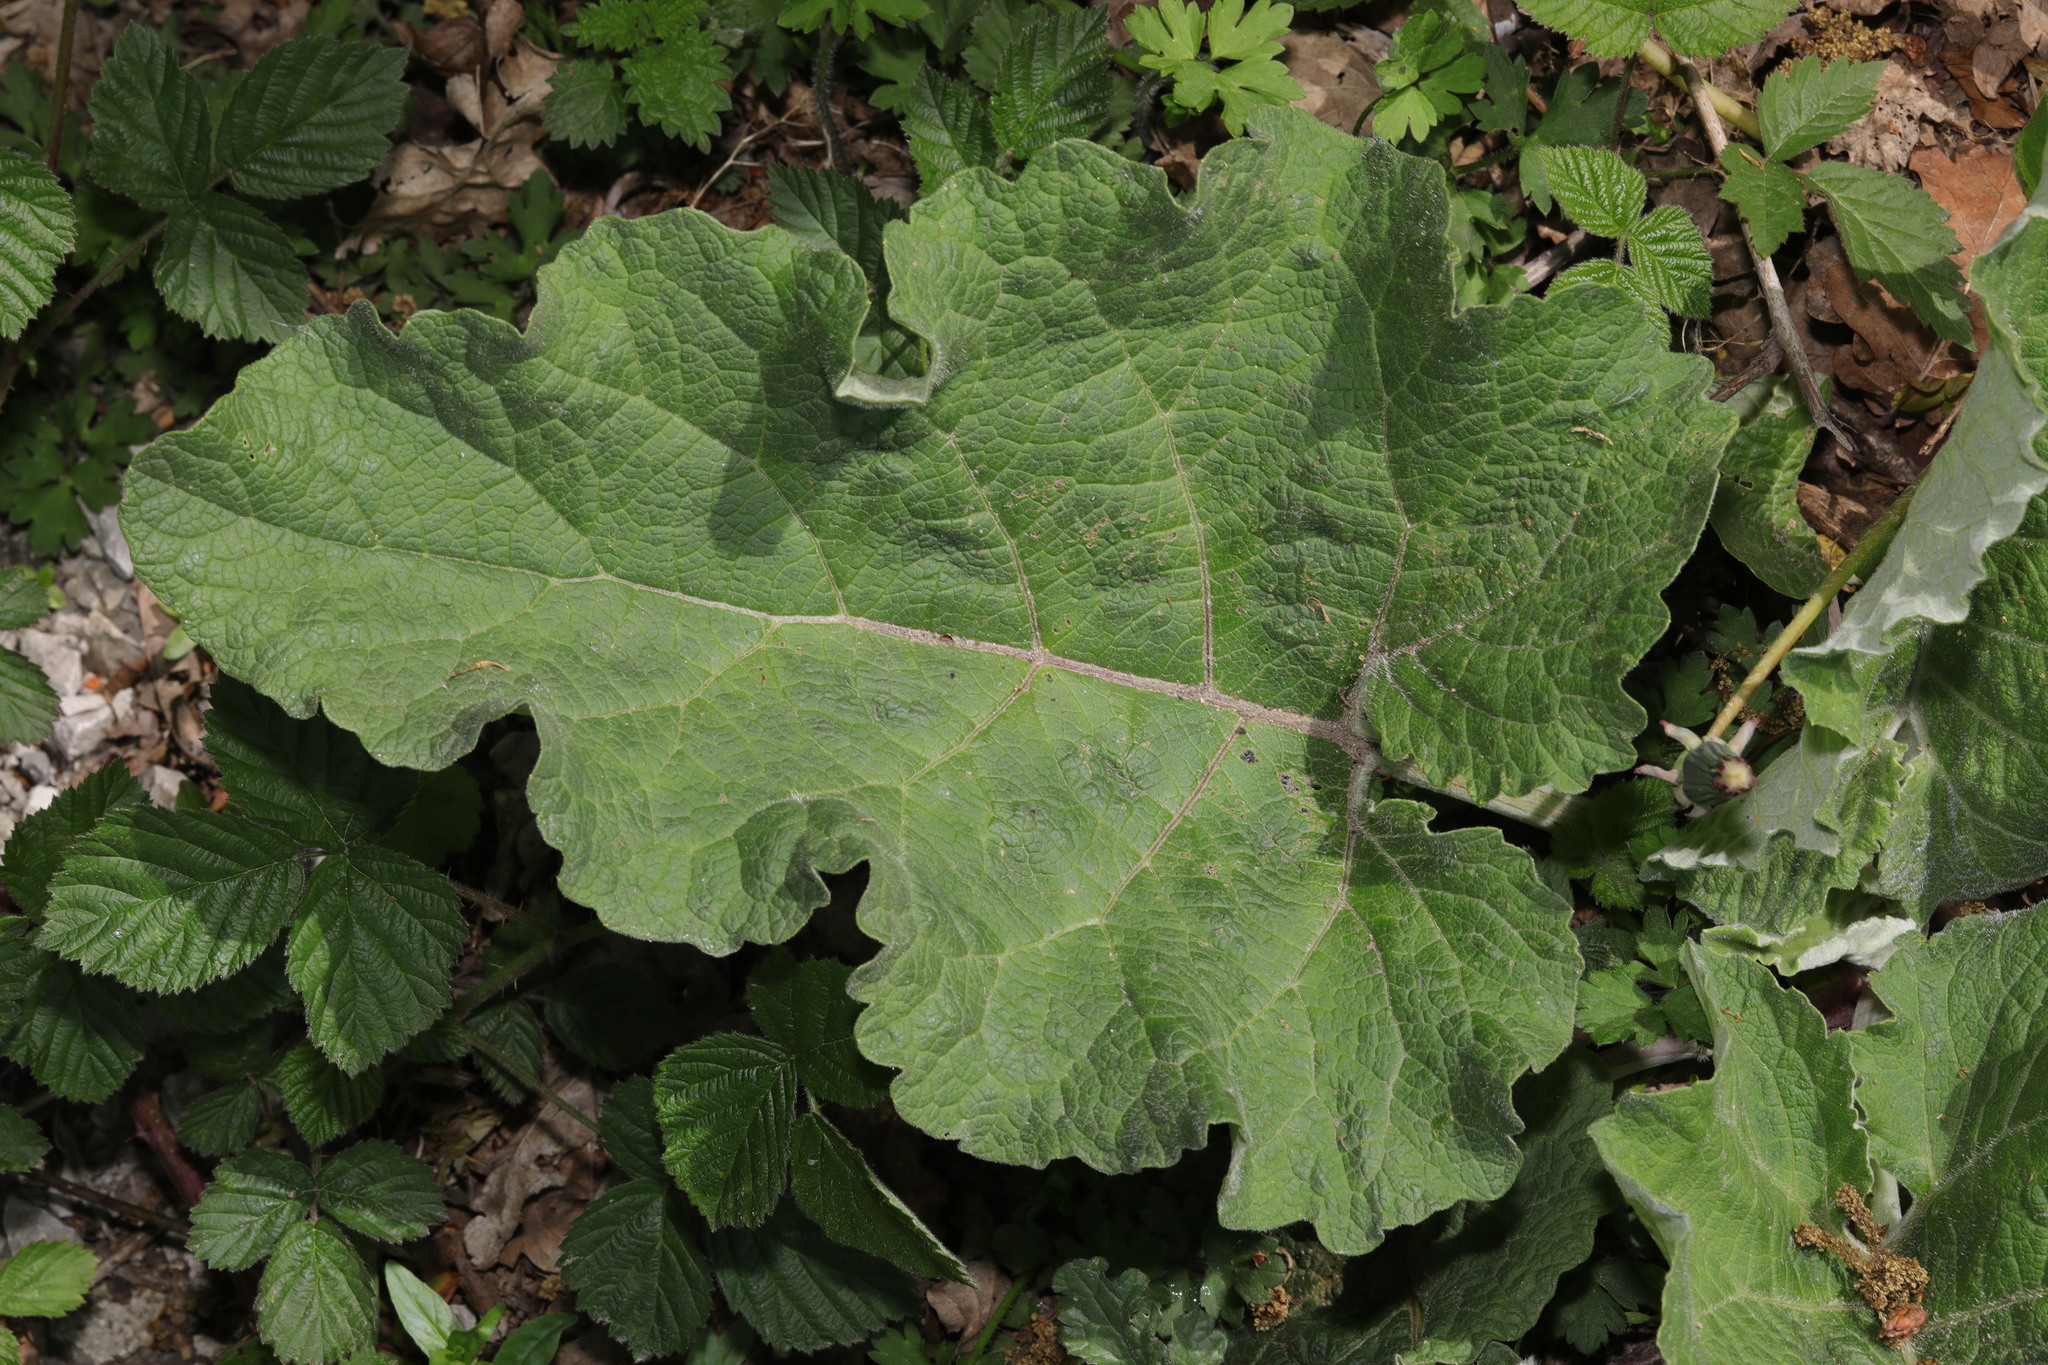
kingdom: Plantae
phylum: Tracheophyta
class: Magnoliopsida
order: Asterales
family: Asteraceae
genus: Arctium
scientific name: Arctium minus
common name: Lesser burdock
